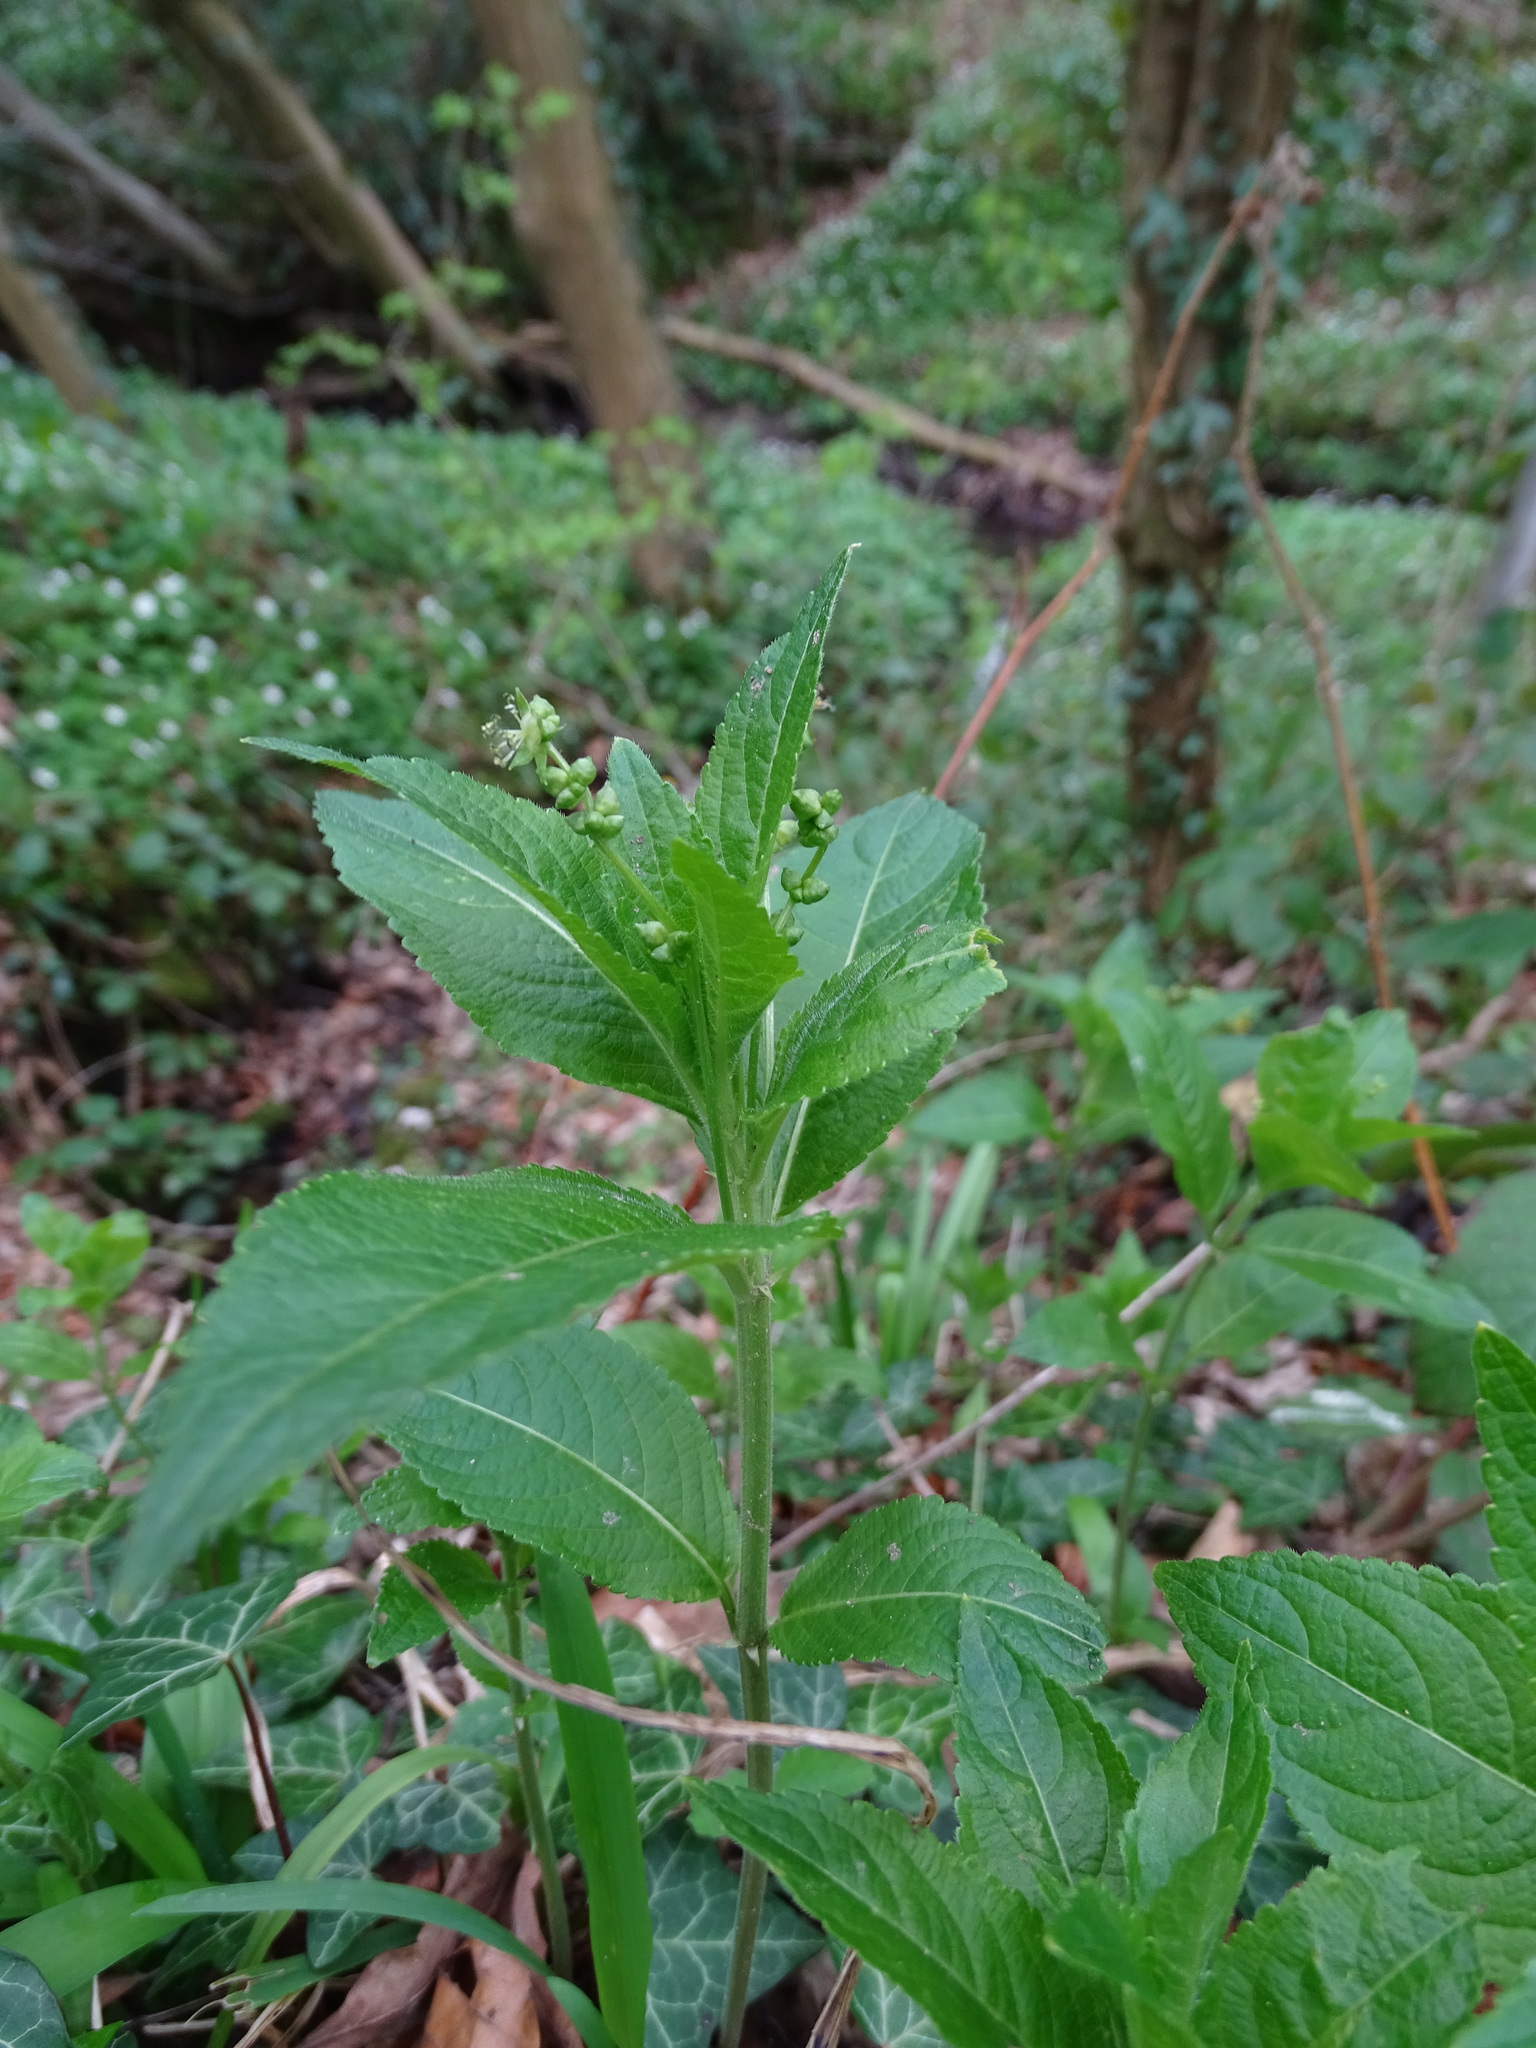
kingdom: Plantae
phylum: Tracheophyta
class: Magnoliopsida
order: Malpighiales
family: Euphorbiaceae
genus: Mercurialis
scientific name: Mercurialis perennis
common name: Dog mercury
